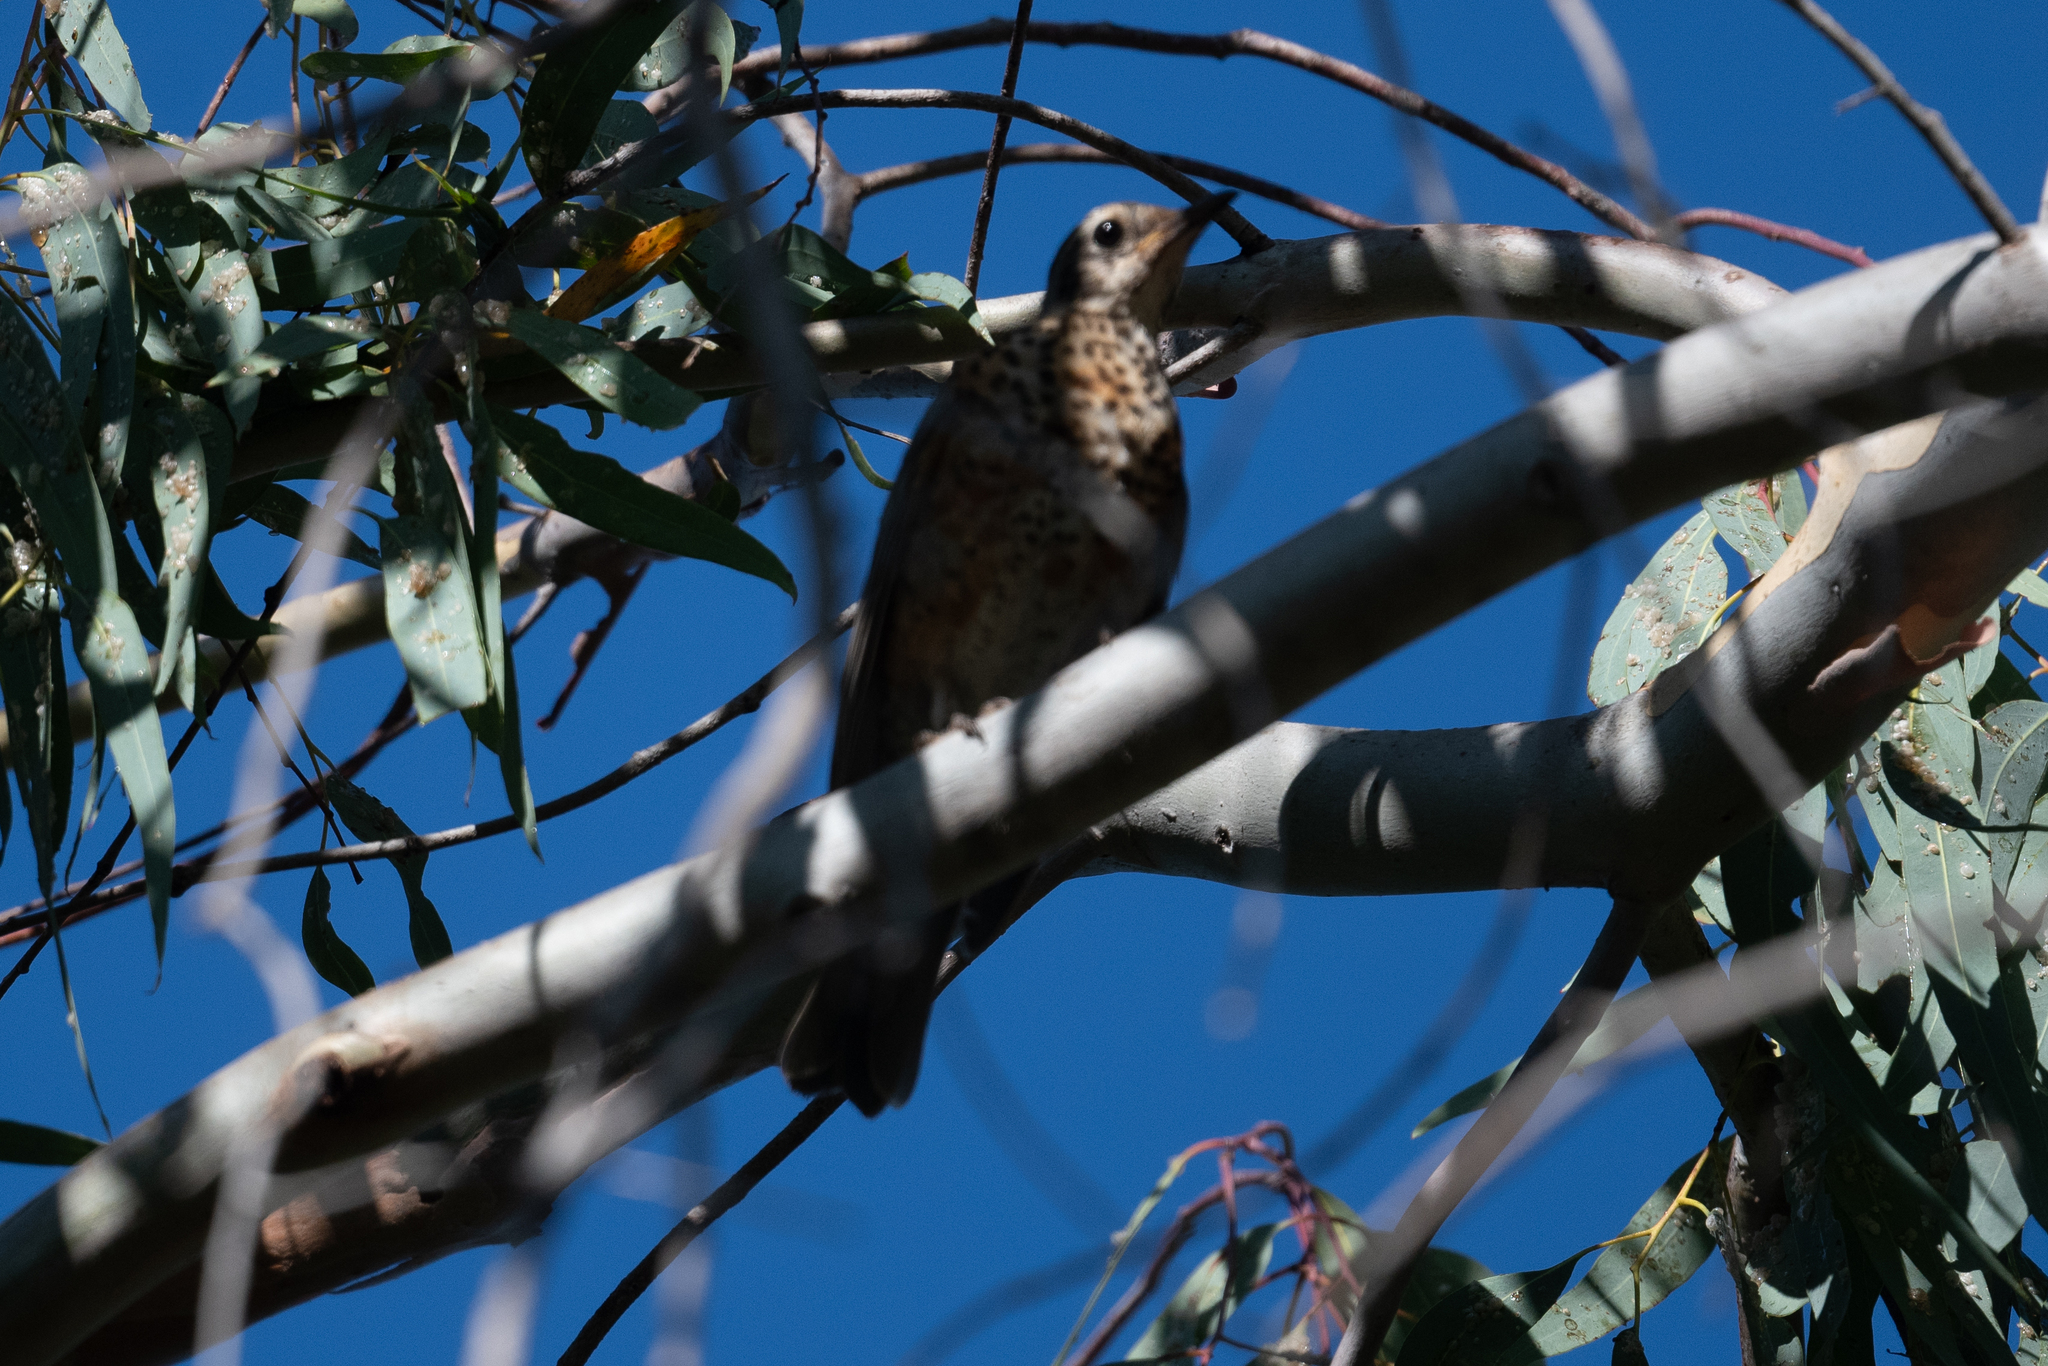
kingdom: Animalia
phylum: Chordata
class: Aves
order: Passeriformes
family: Turdidae
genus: Turdus
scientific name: Turdus migratorius
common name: American robin
